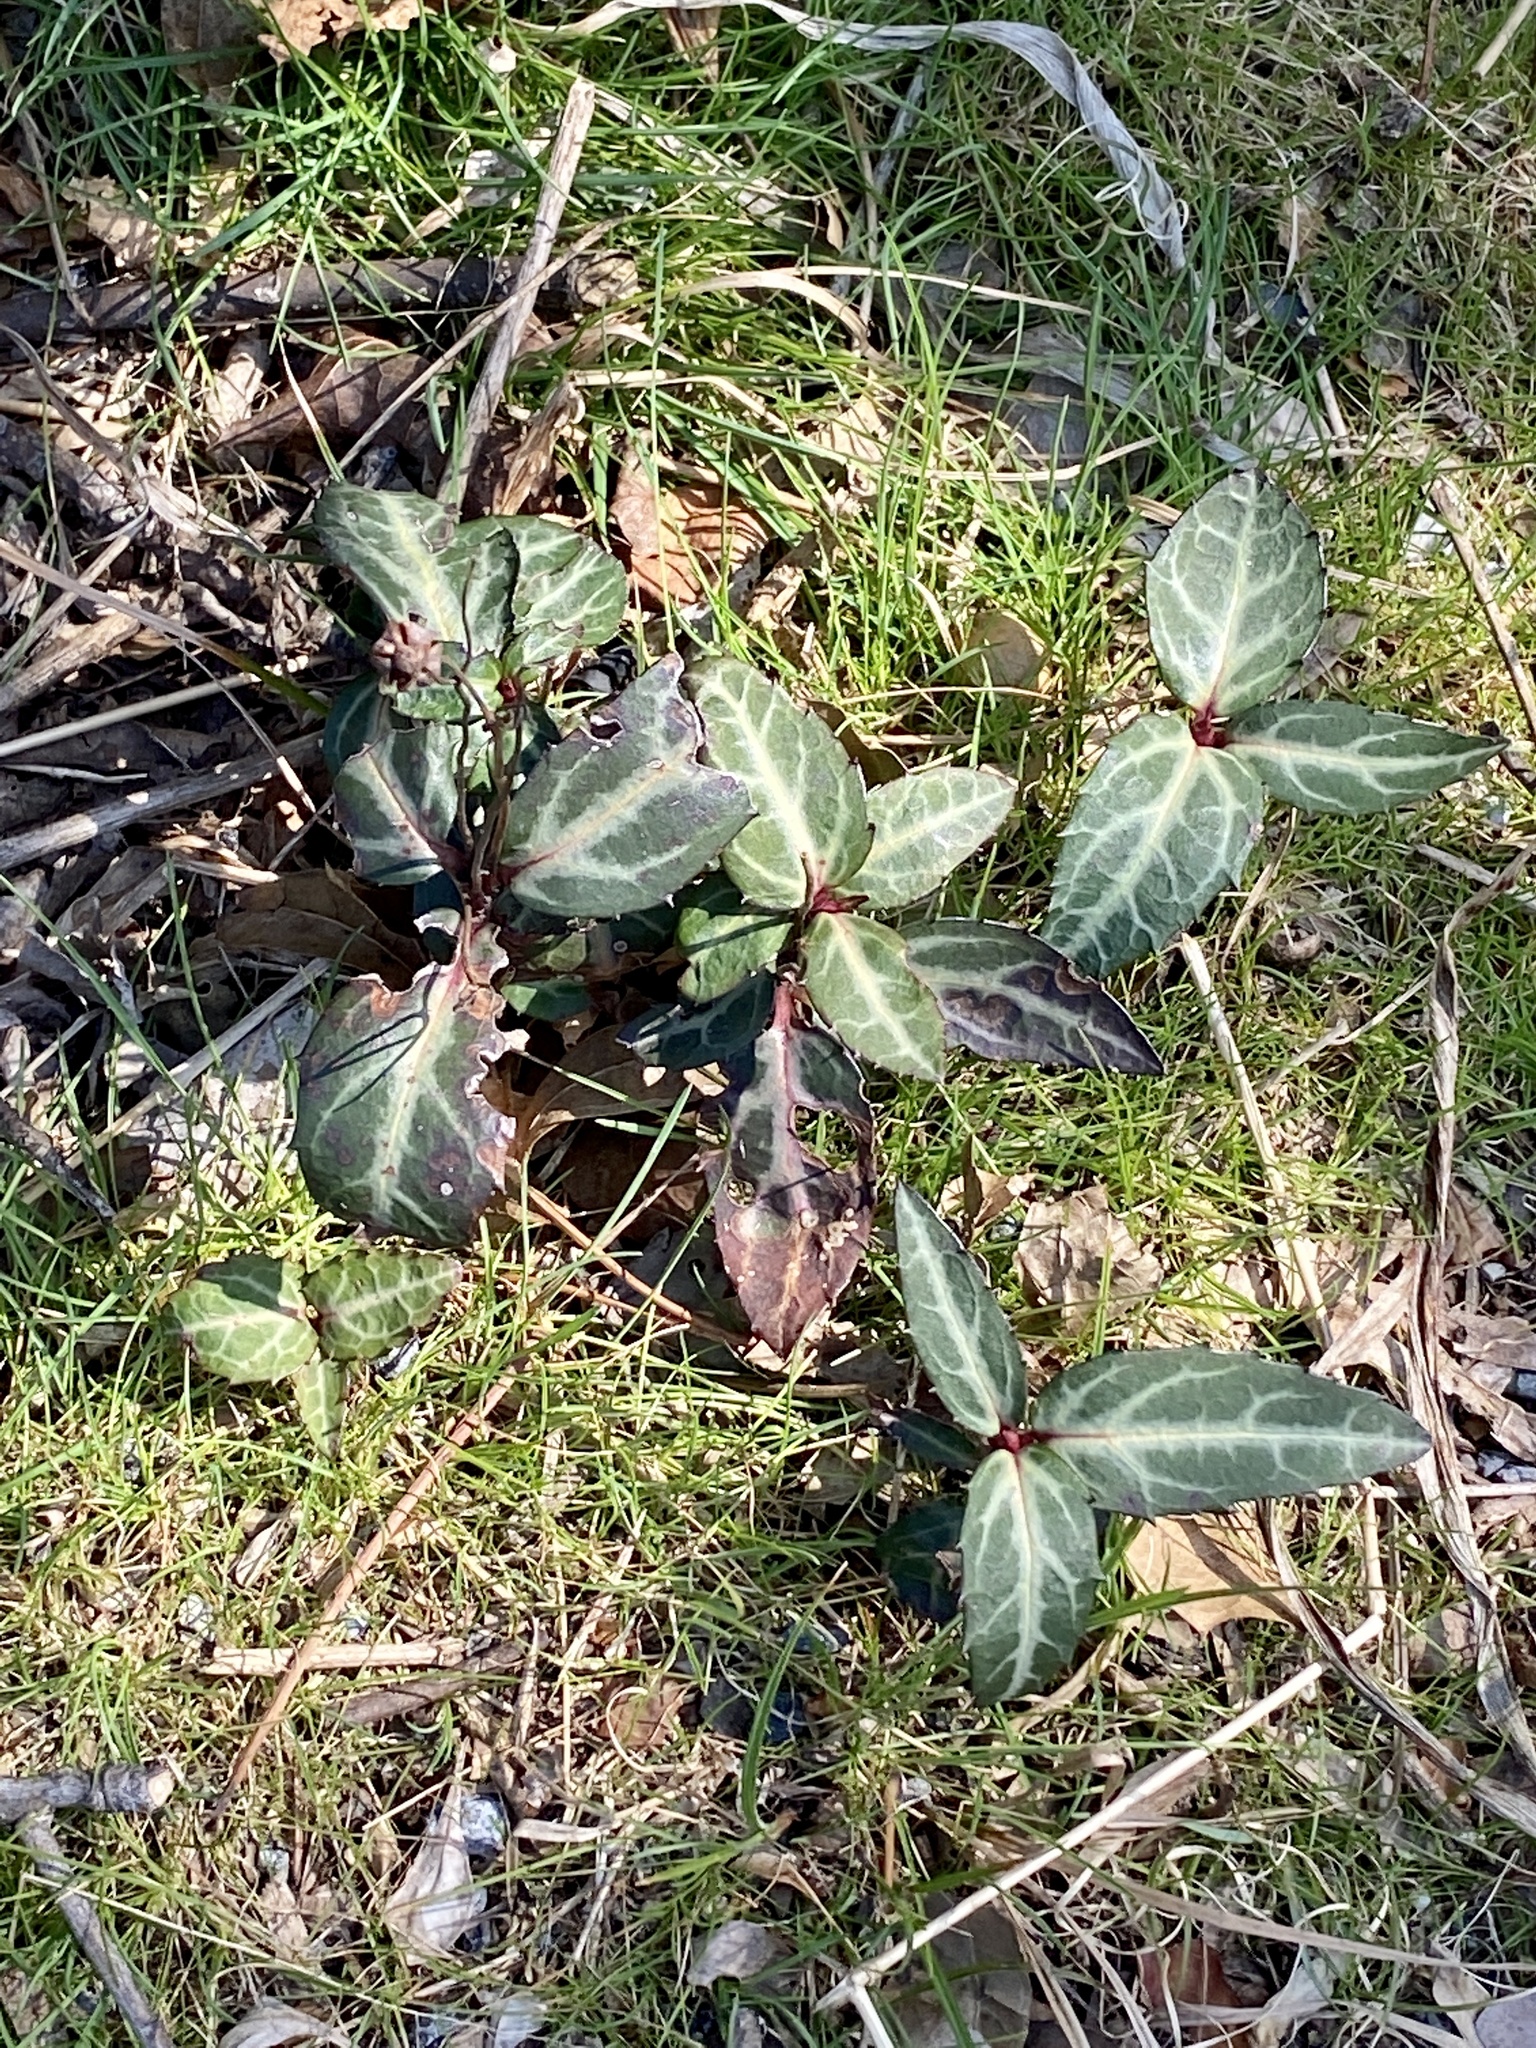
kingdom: Plantae
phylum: Tracheophyta
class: Magnoliopsida
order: Ericales
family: Ericaceae
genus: Chimaphila
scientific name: Chimaphila maculata
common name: Spotted pipsissewa
